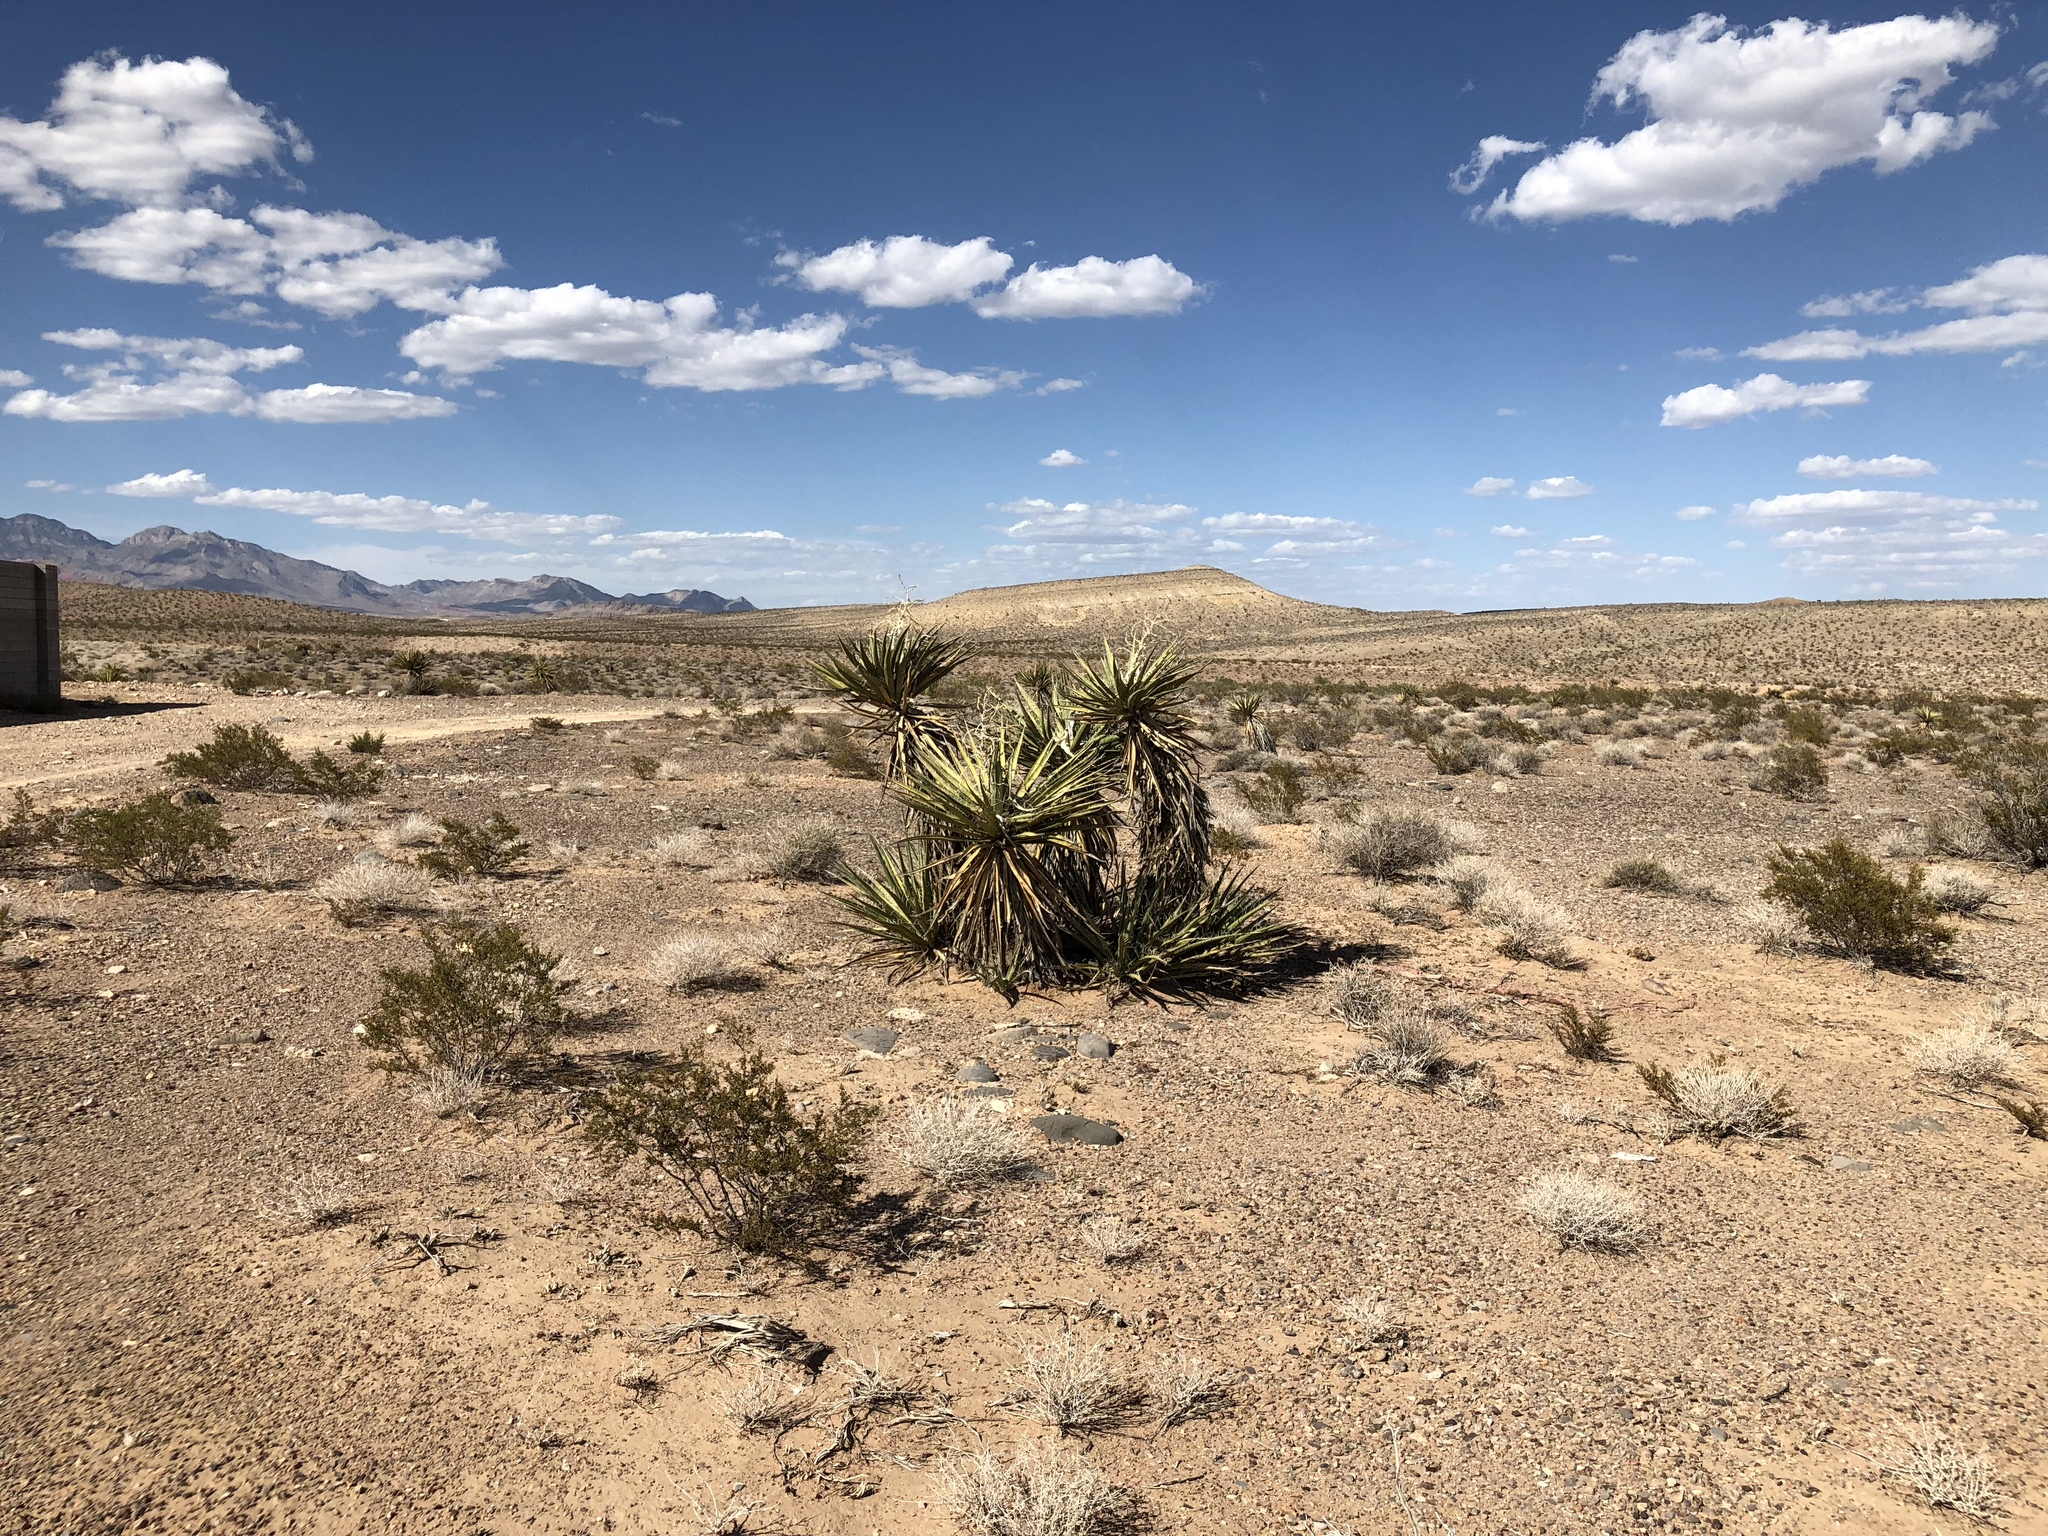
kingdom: Plantae
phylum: Tracheophyta
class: Liliopsida
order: Asparagales
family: Asparagaceae
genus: Yucca
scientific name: Yucca schidigera
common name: Mojave yucca
